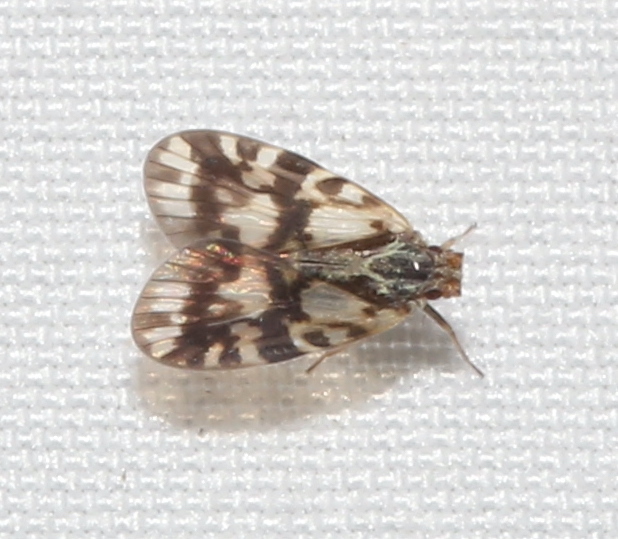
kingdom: Animalia
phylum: Arthropoda
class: Insecta
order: Hemiptera
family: Cixiidae
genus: Bothriocera
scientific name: Bothriocera cognita
